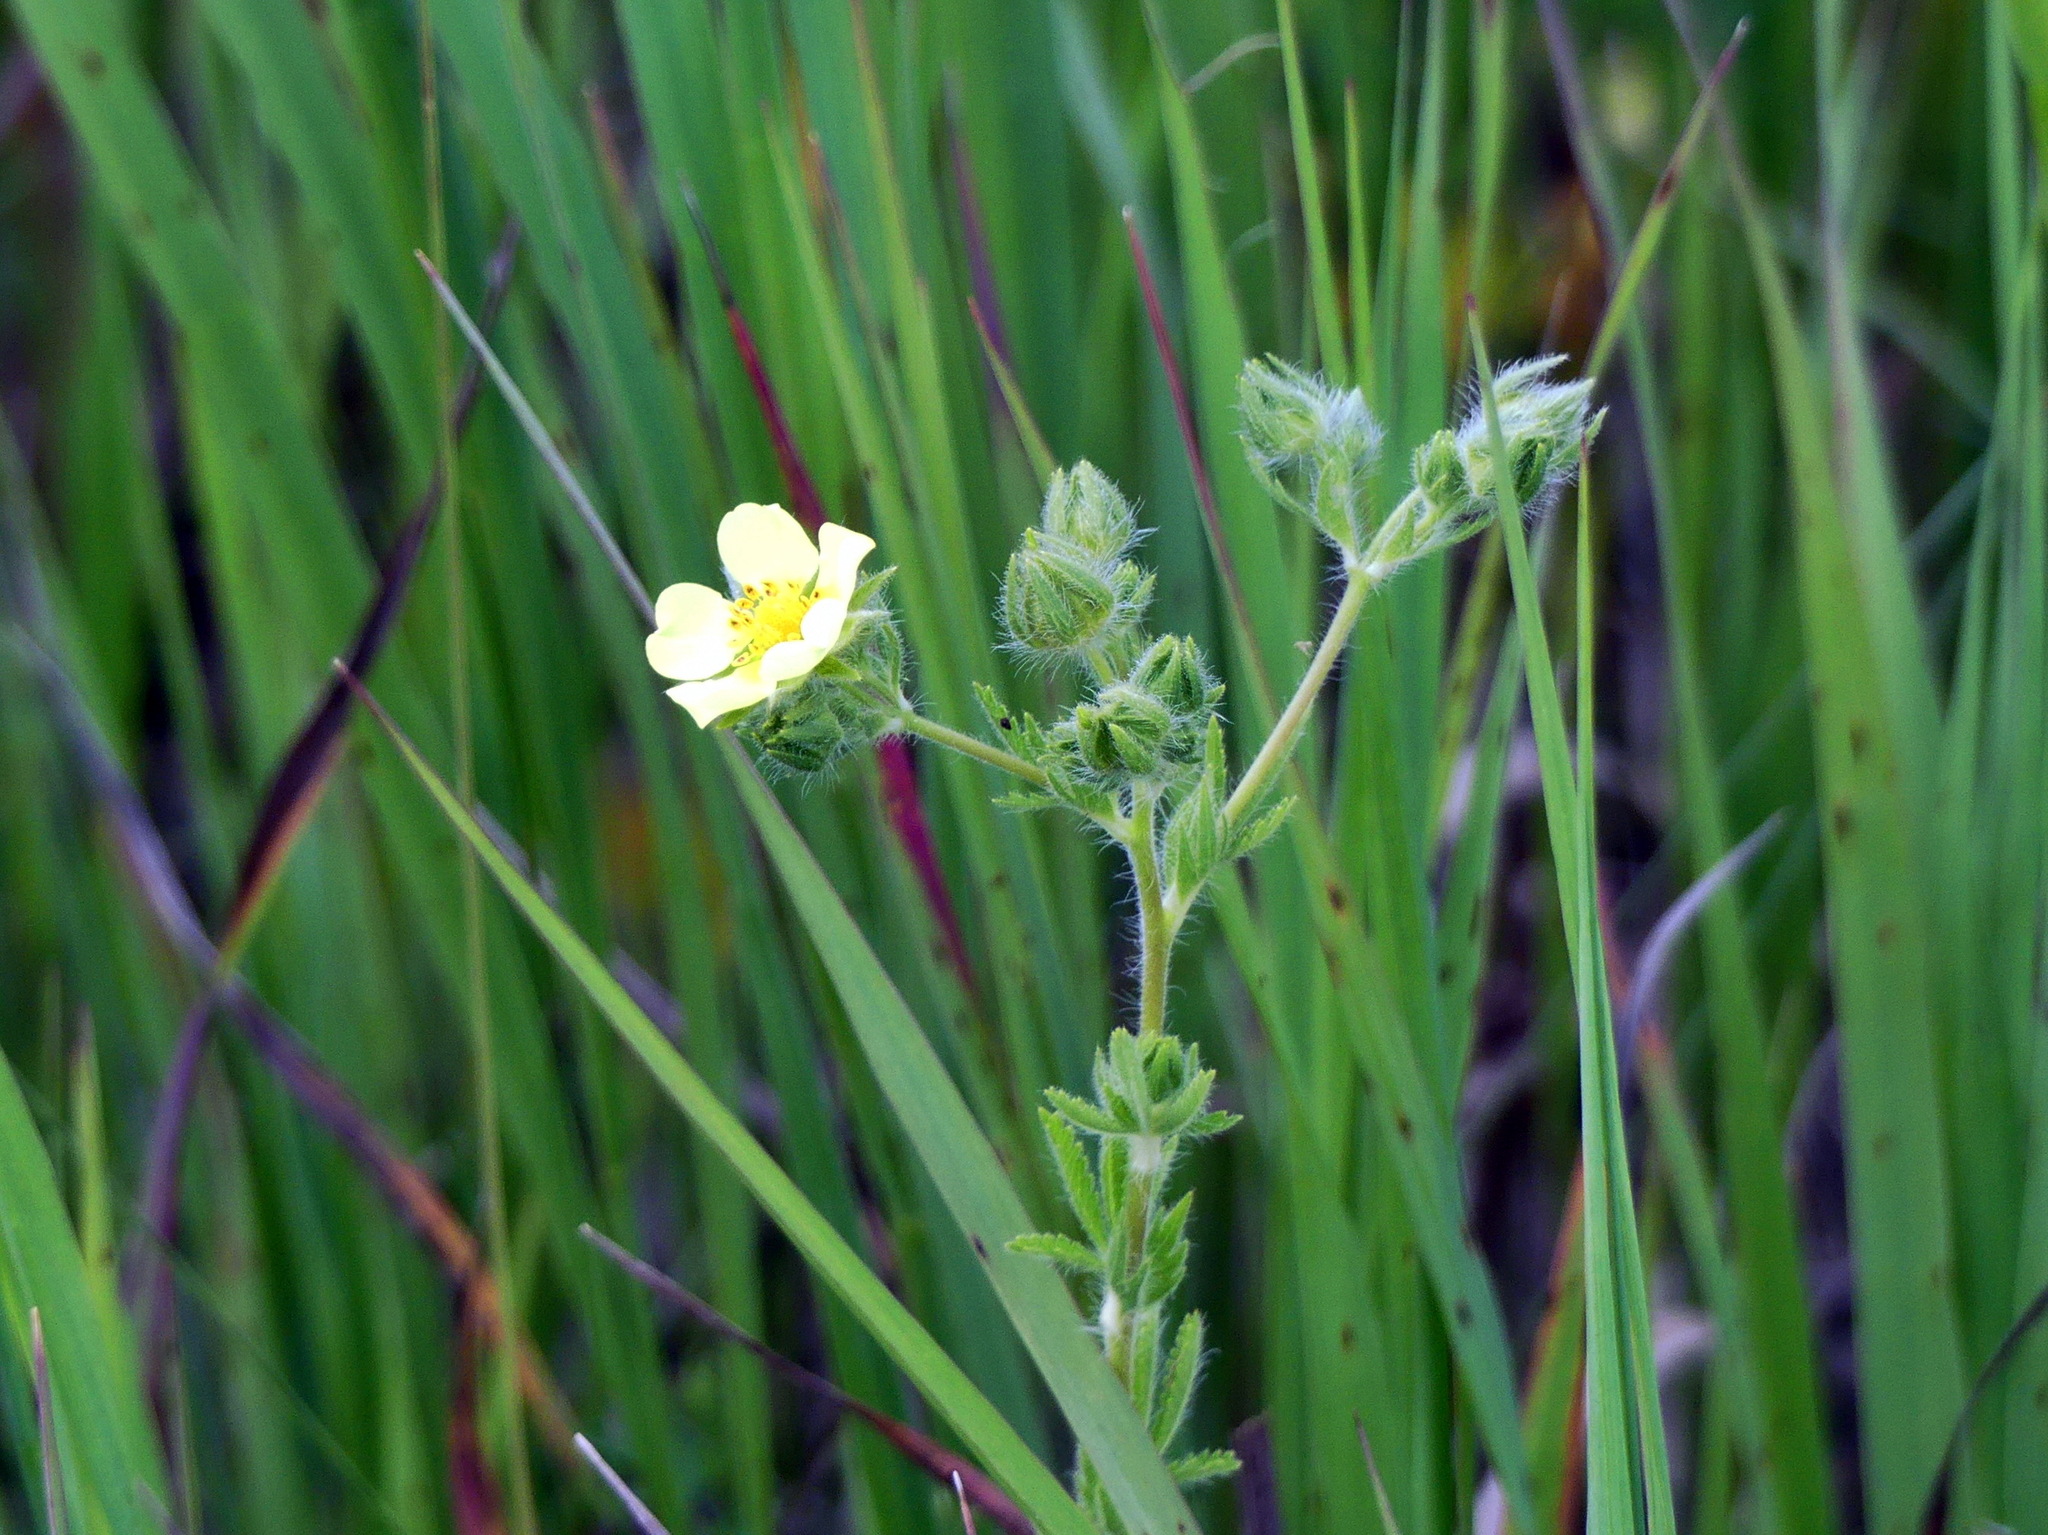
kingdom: Plantae
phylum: Tracheophyta
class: Magnoliopsida
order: Rosales
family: Rosaceae
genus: Potentilla
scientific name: Potentilla recta
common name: Sulphur cinquefoil
